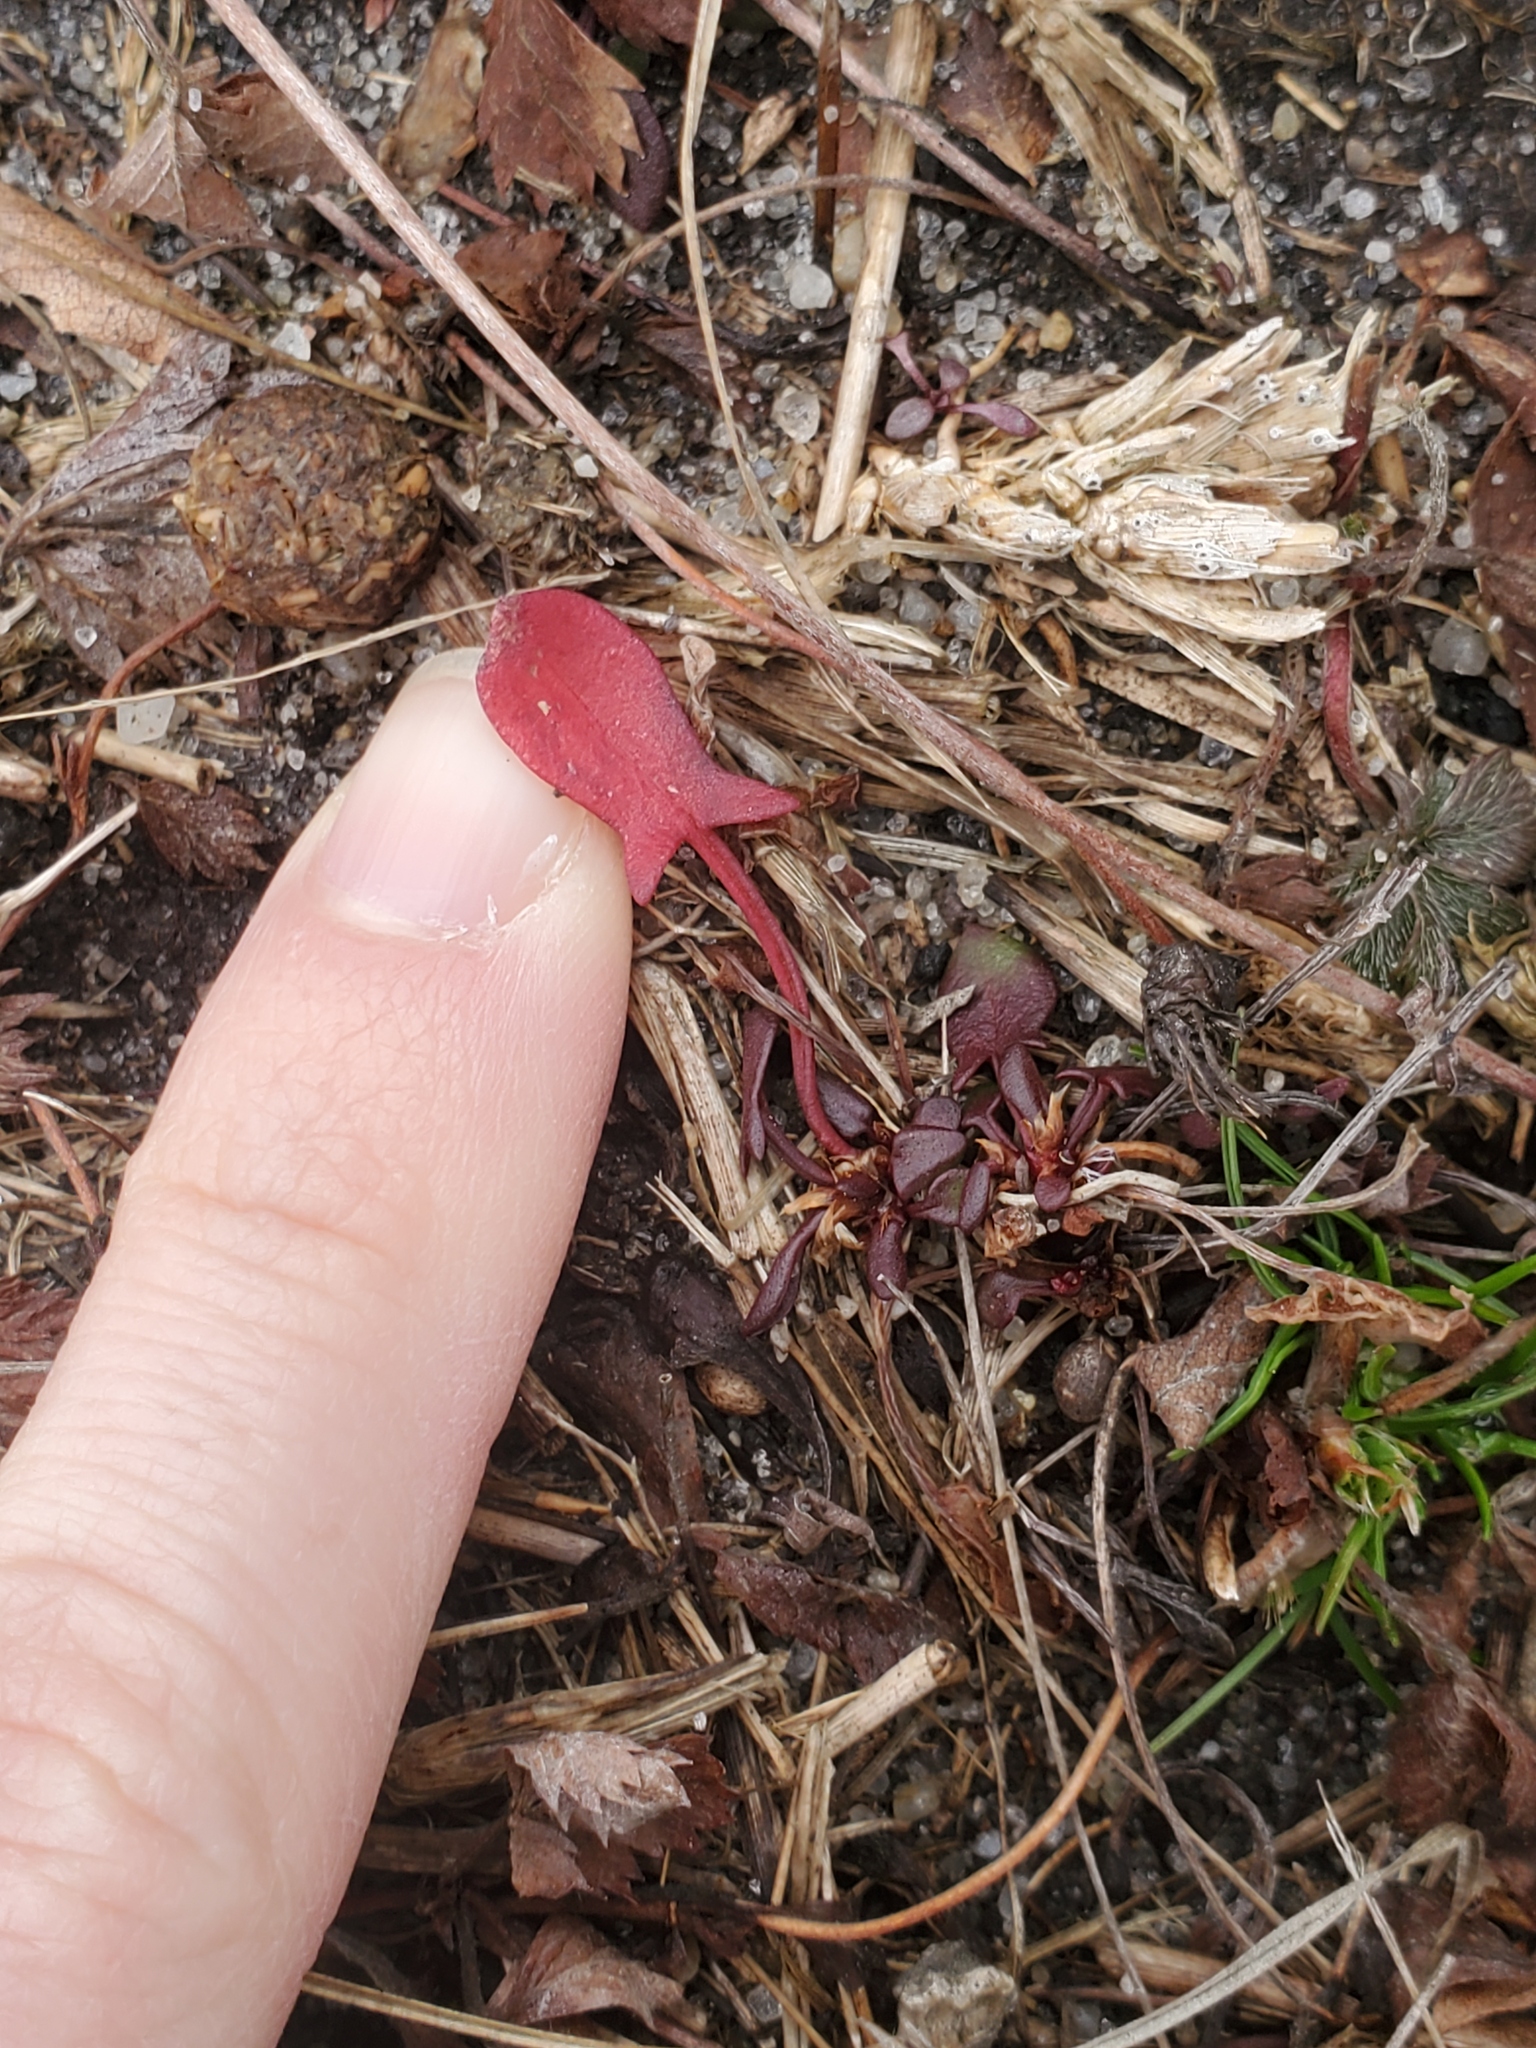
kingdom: Plantae
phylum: Tracheophyta
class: Magnoliopsida
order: Caryophyllales
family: Polygonaceae
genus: Rumex
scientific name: Rumex acetosella
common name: Common sheep sorrel
